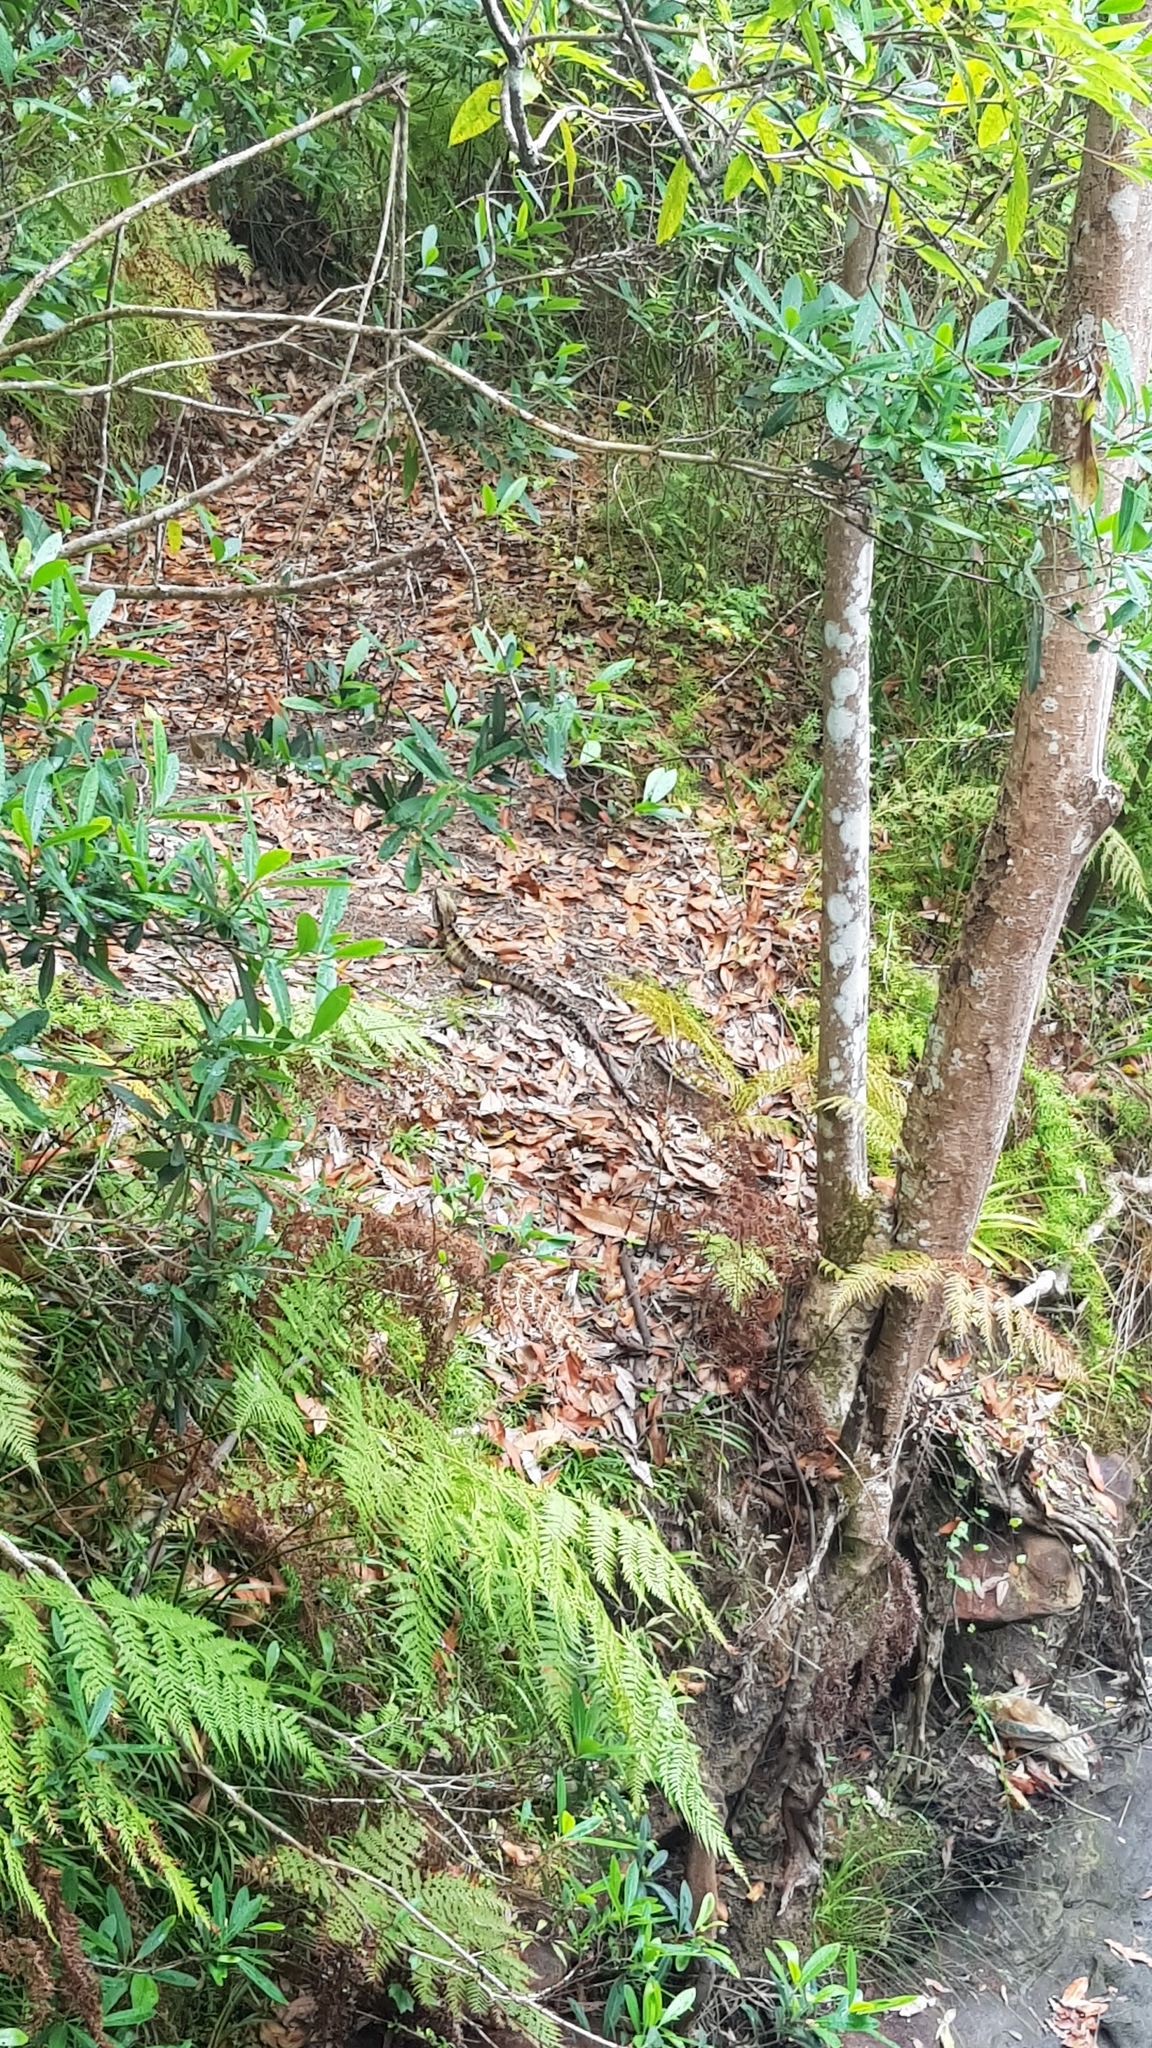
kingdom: Animalia
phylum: Chordata
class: Squamata
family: Agamidae
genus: Intellagama
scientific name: Intellagama lesueurii
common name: Eastern water dragon
